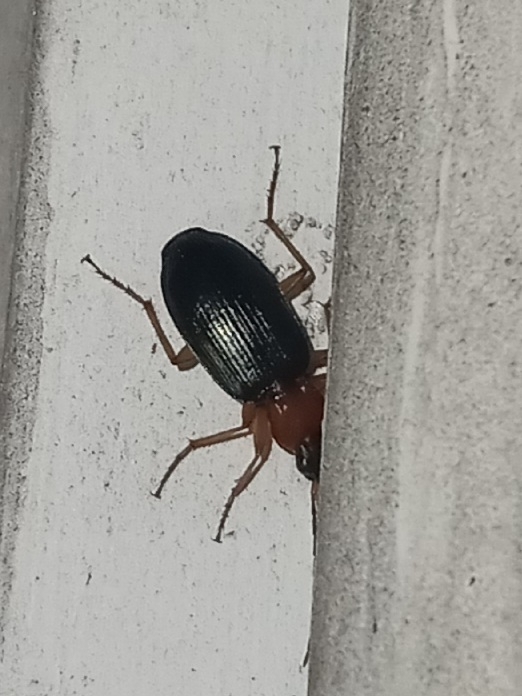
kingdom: Animalia
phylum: Arthropoda
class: Insecta
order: Coleoptera
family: Carabidae
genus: Agonum
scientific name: Agonum decorum
